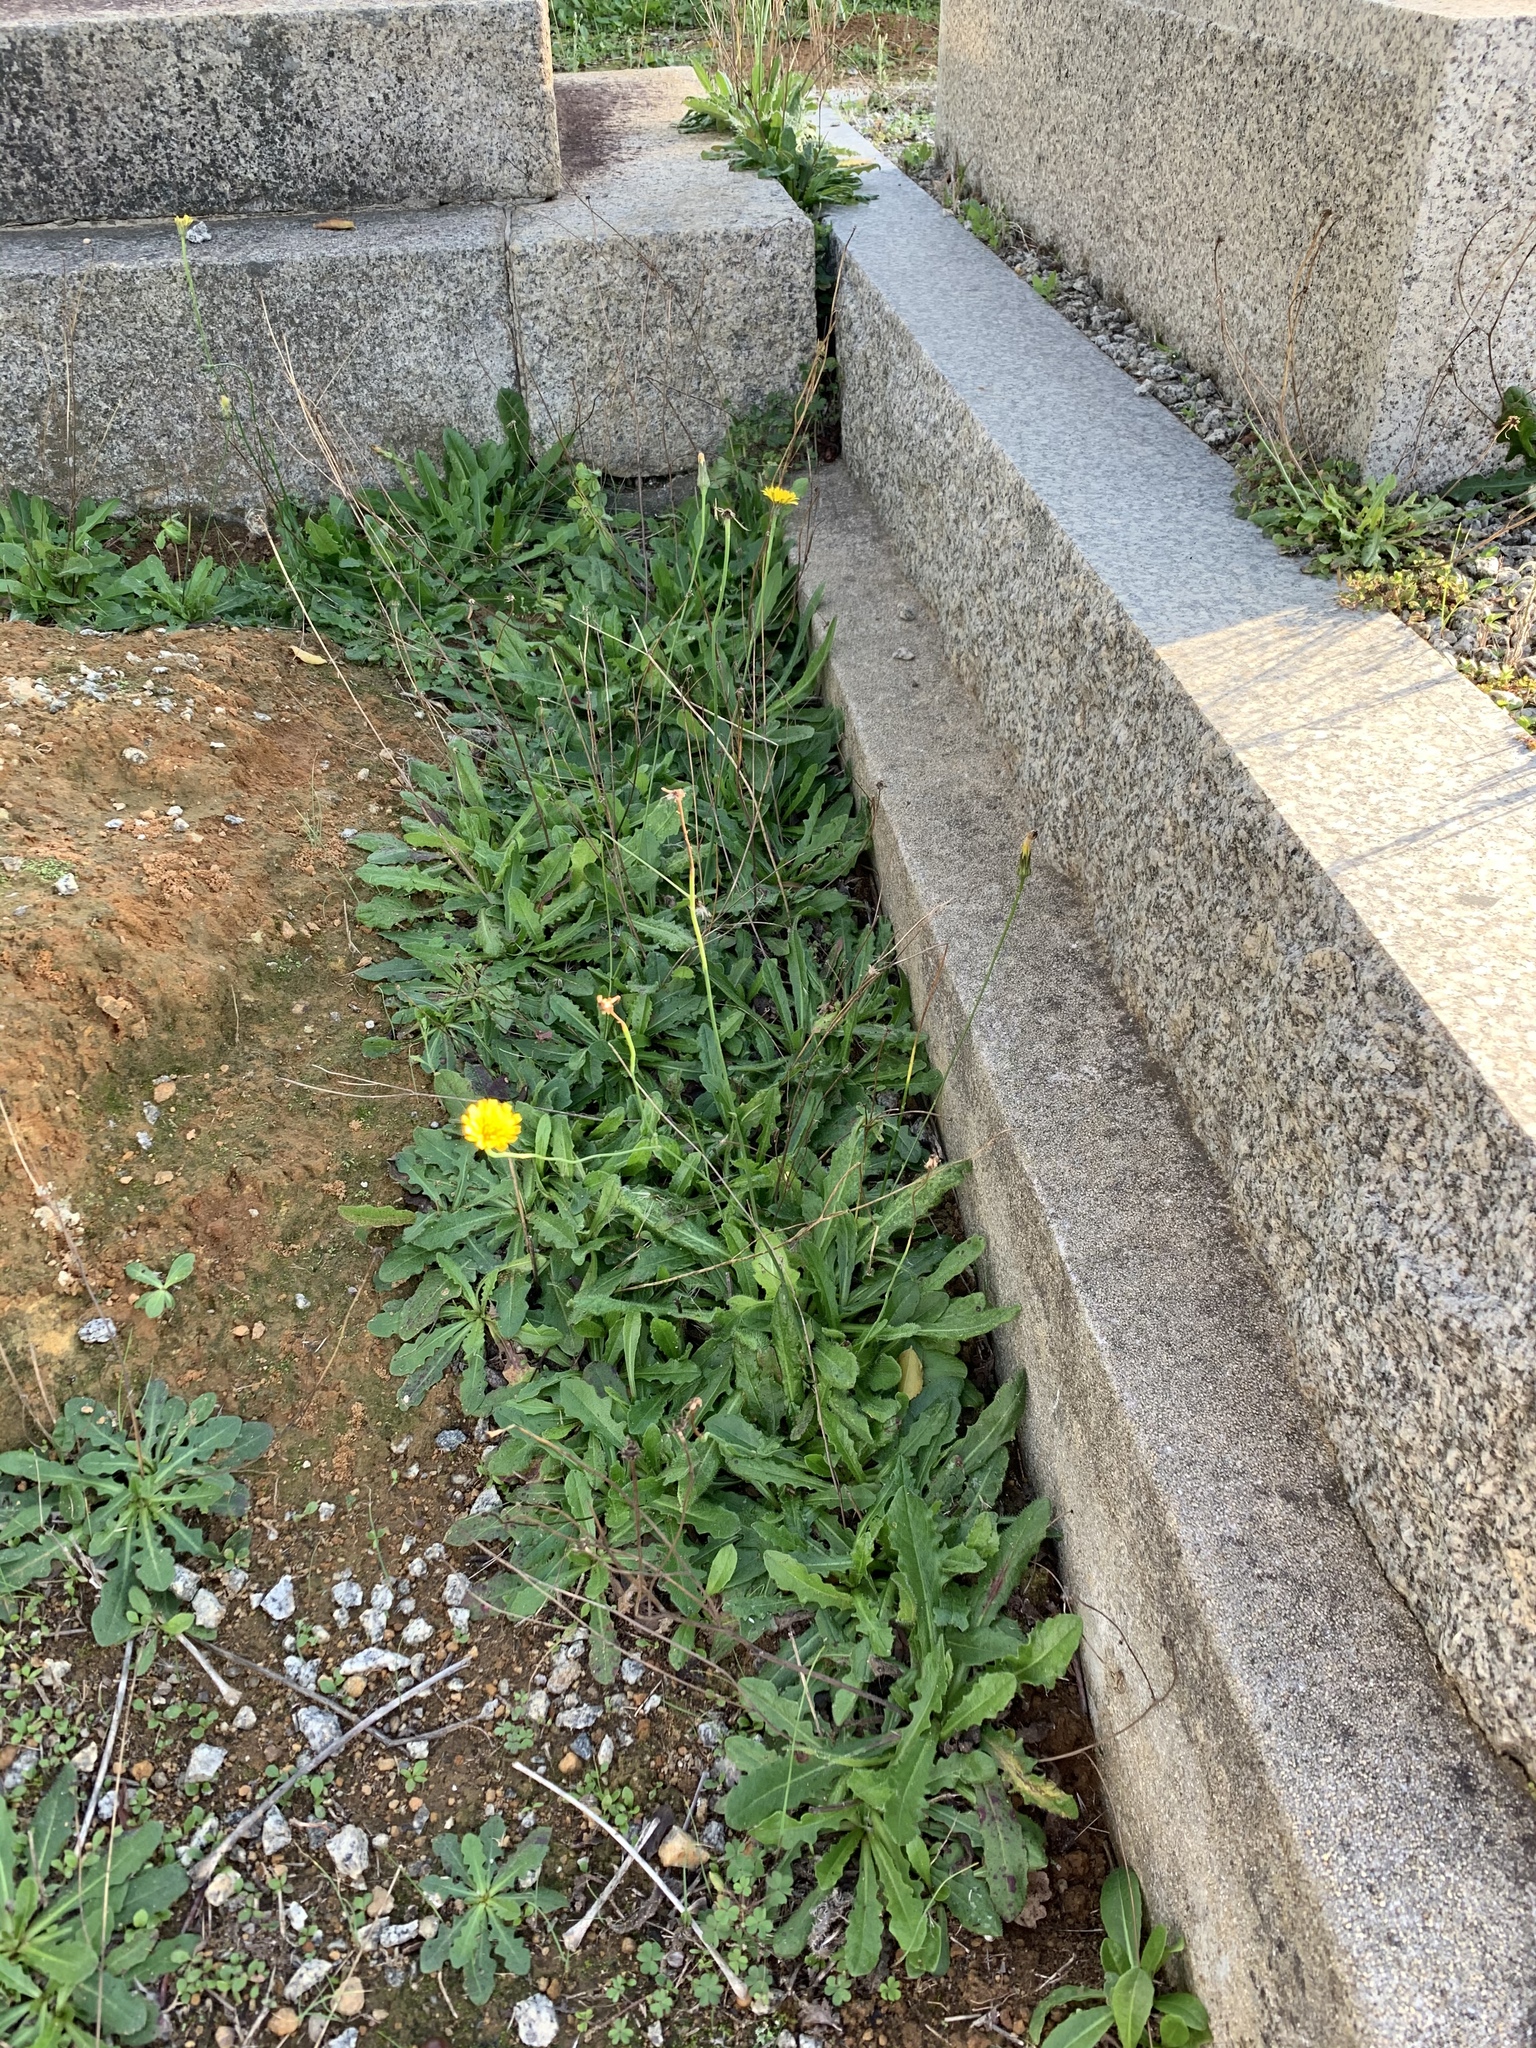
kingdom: Plantae
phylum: Tracheophyta
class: Magnoliopsida
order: Asterales
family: Asteraceae
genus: Hypochaeris
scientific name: Hypochaeris radicata
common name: Flatweed
